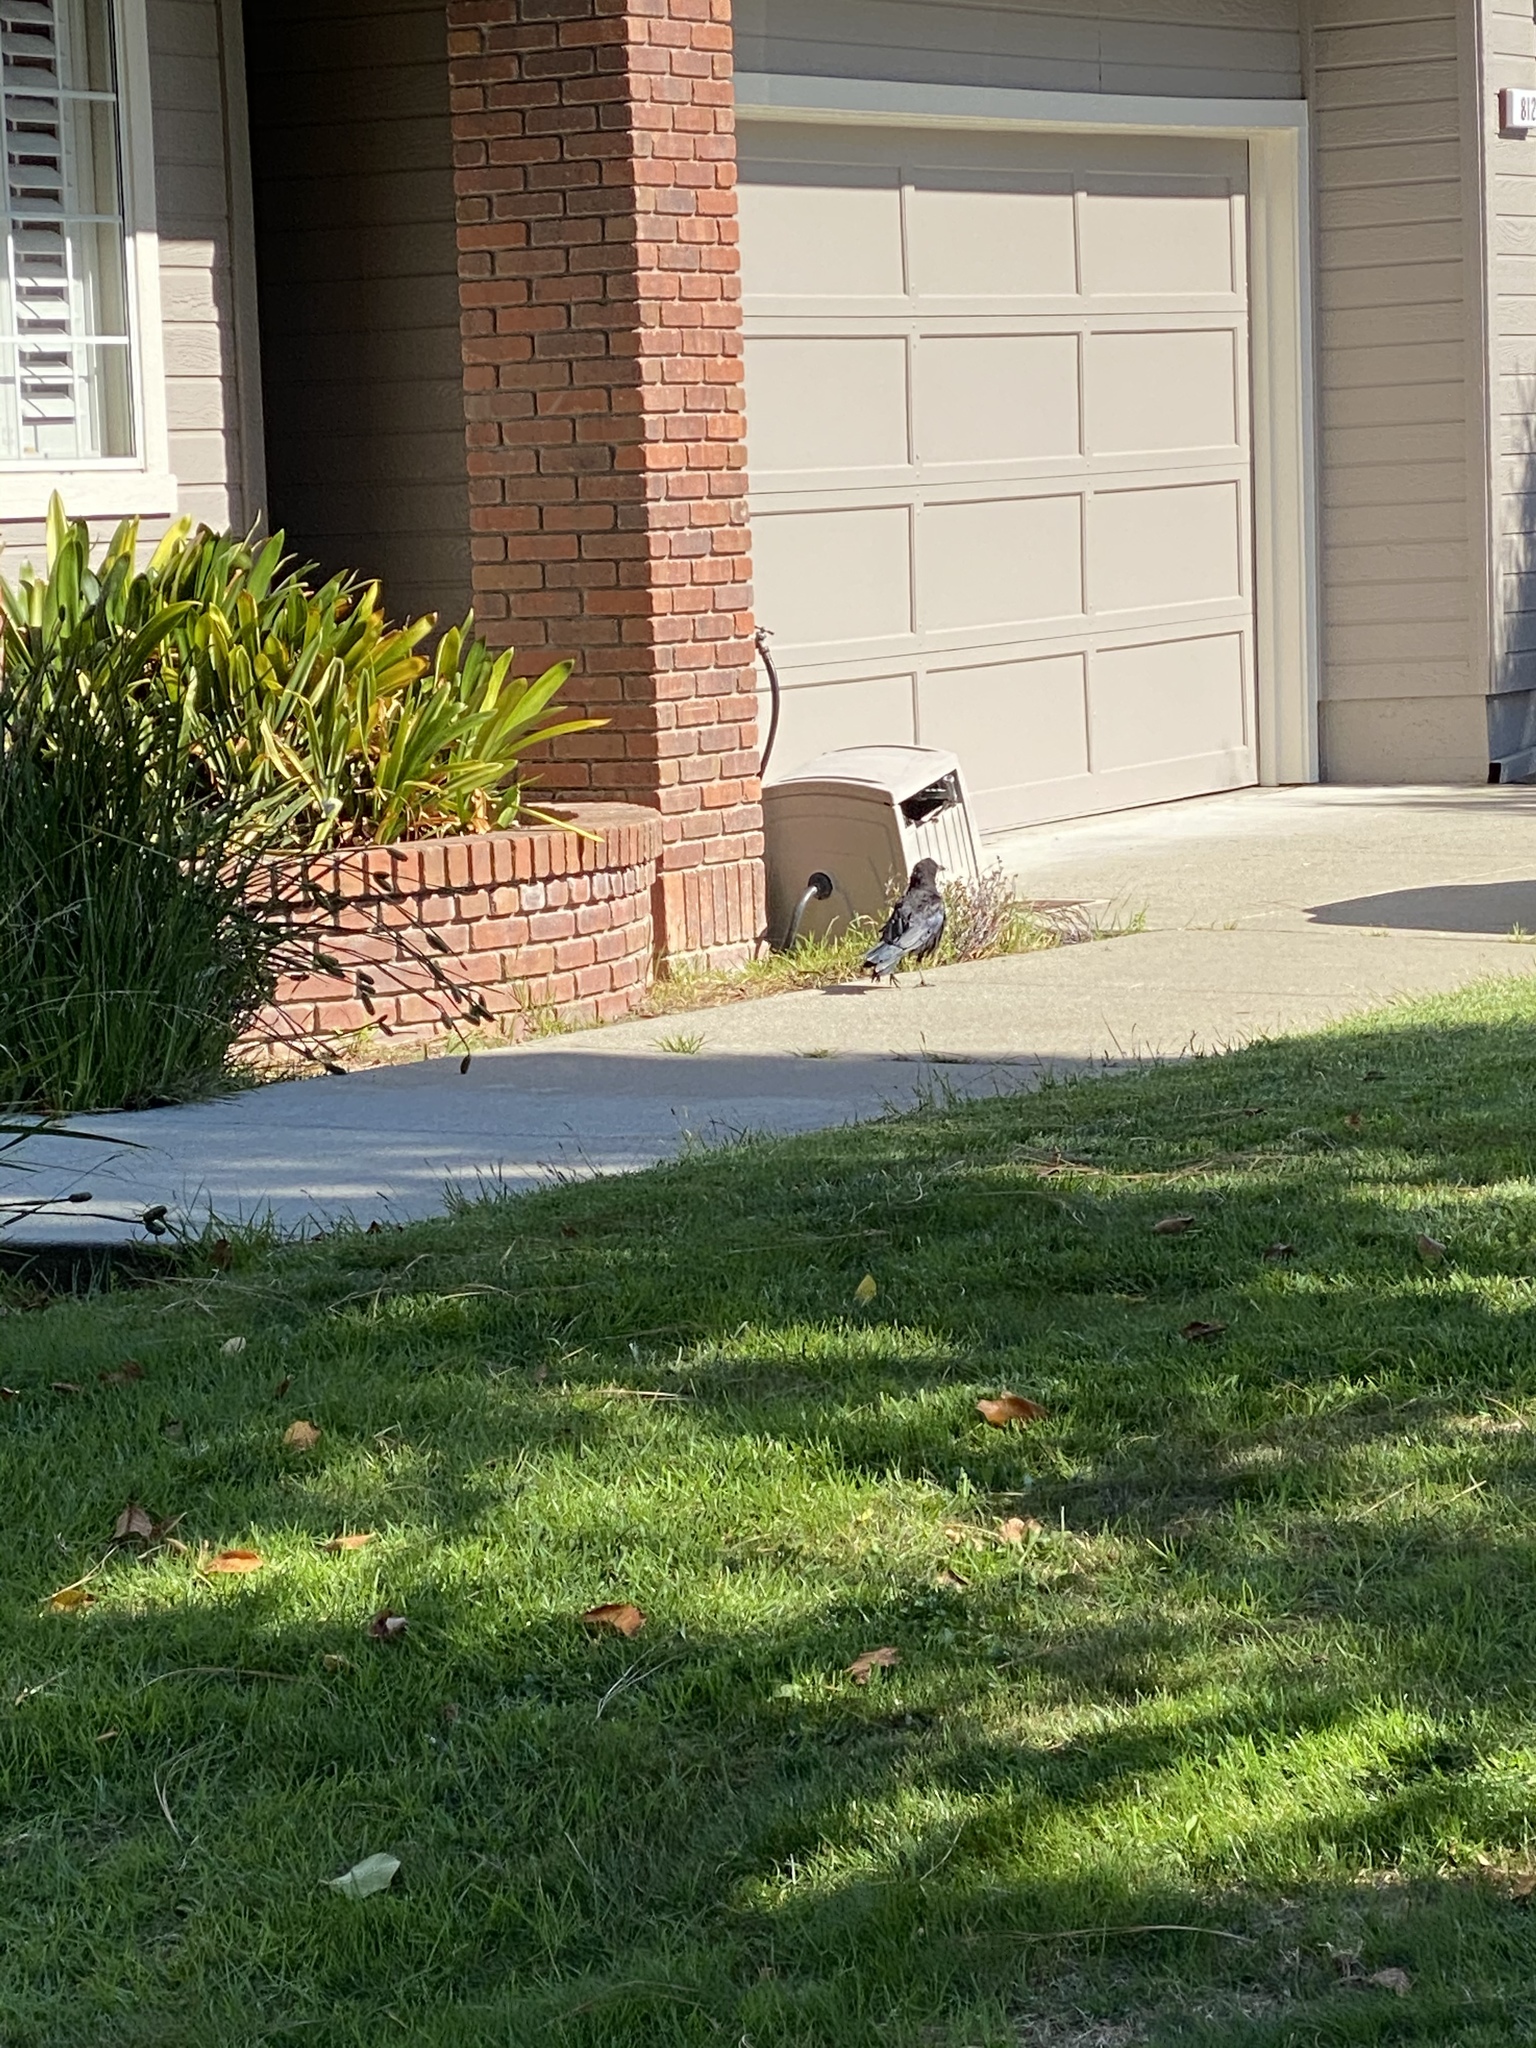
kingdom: Animalia
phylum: Chordata
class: Aves
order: Passeriformes
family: Corvidae
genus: Corvus
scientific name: Corvus brachyrhynchos
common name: American crow
